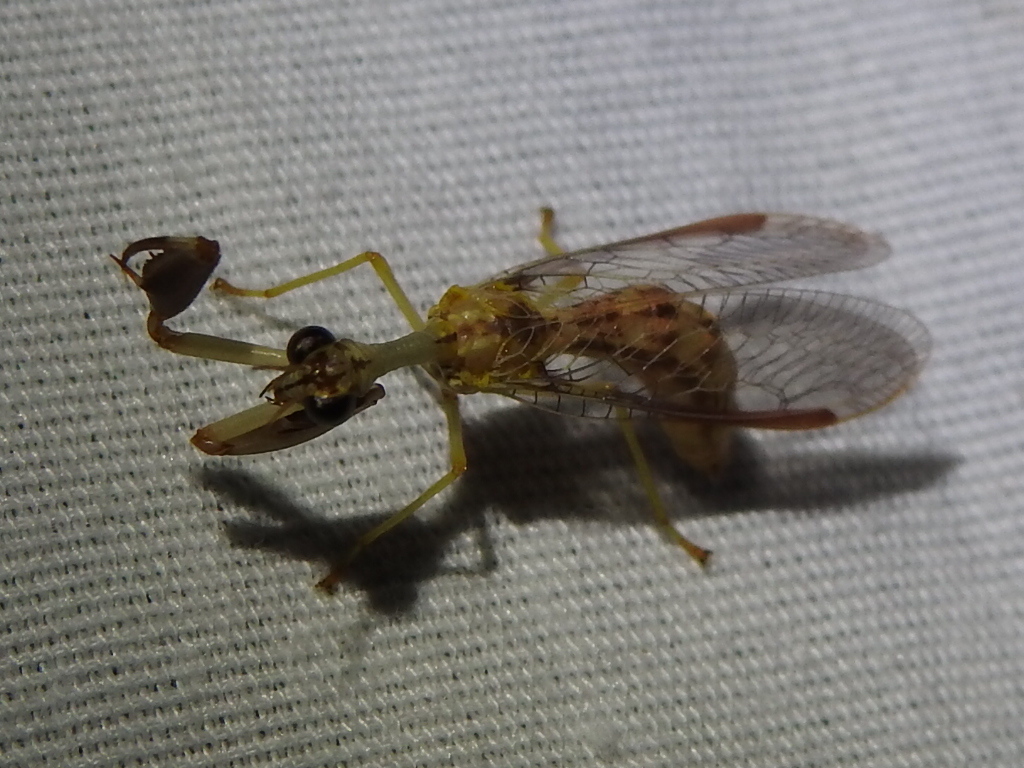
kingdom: Animalia
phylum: Arthropoda
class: Insecta
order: Neuroptera
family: Mantispidae
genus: Dicromantispa
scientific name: Dicromantispa sayi
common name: Say's mantidfly
